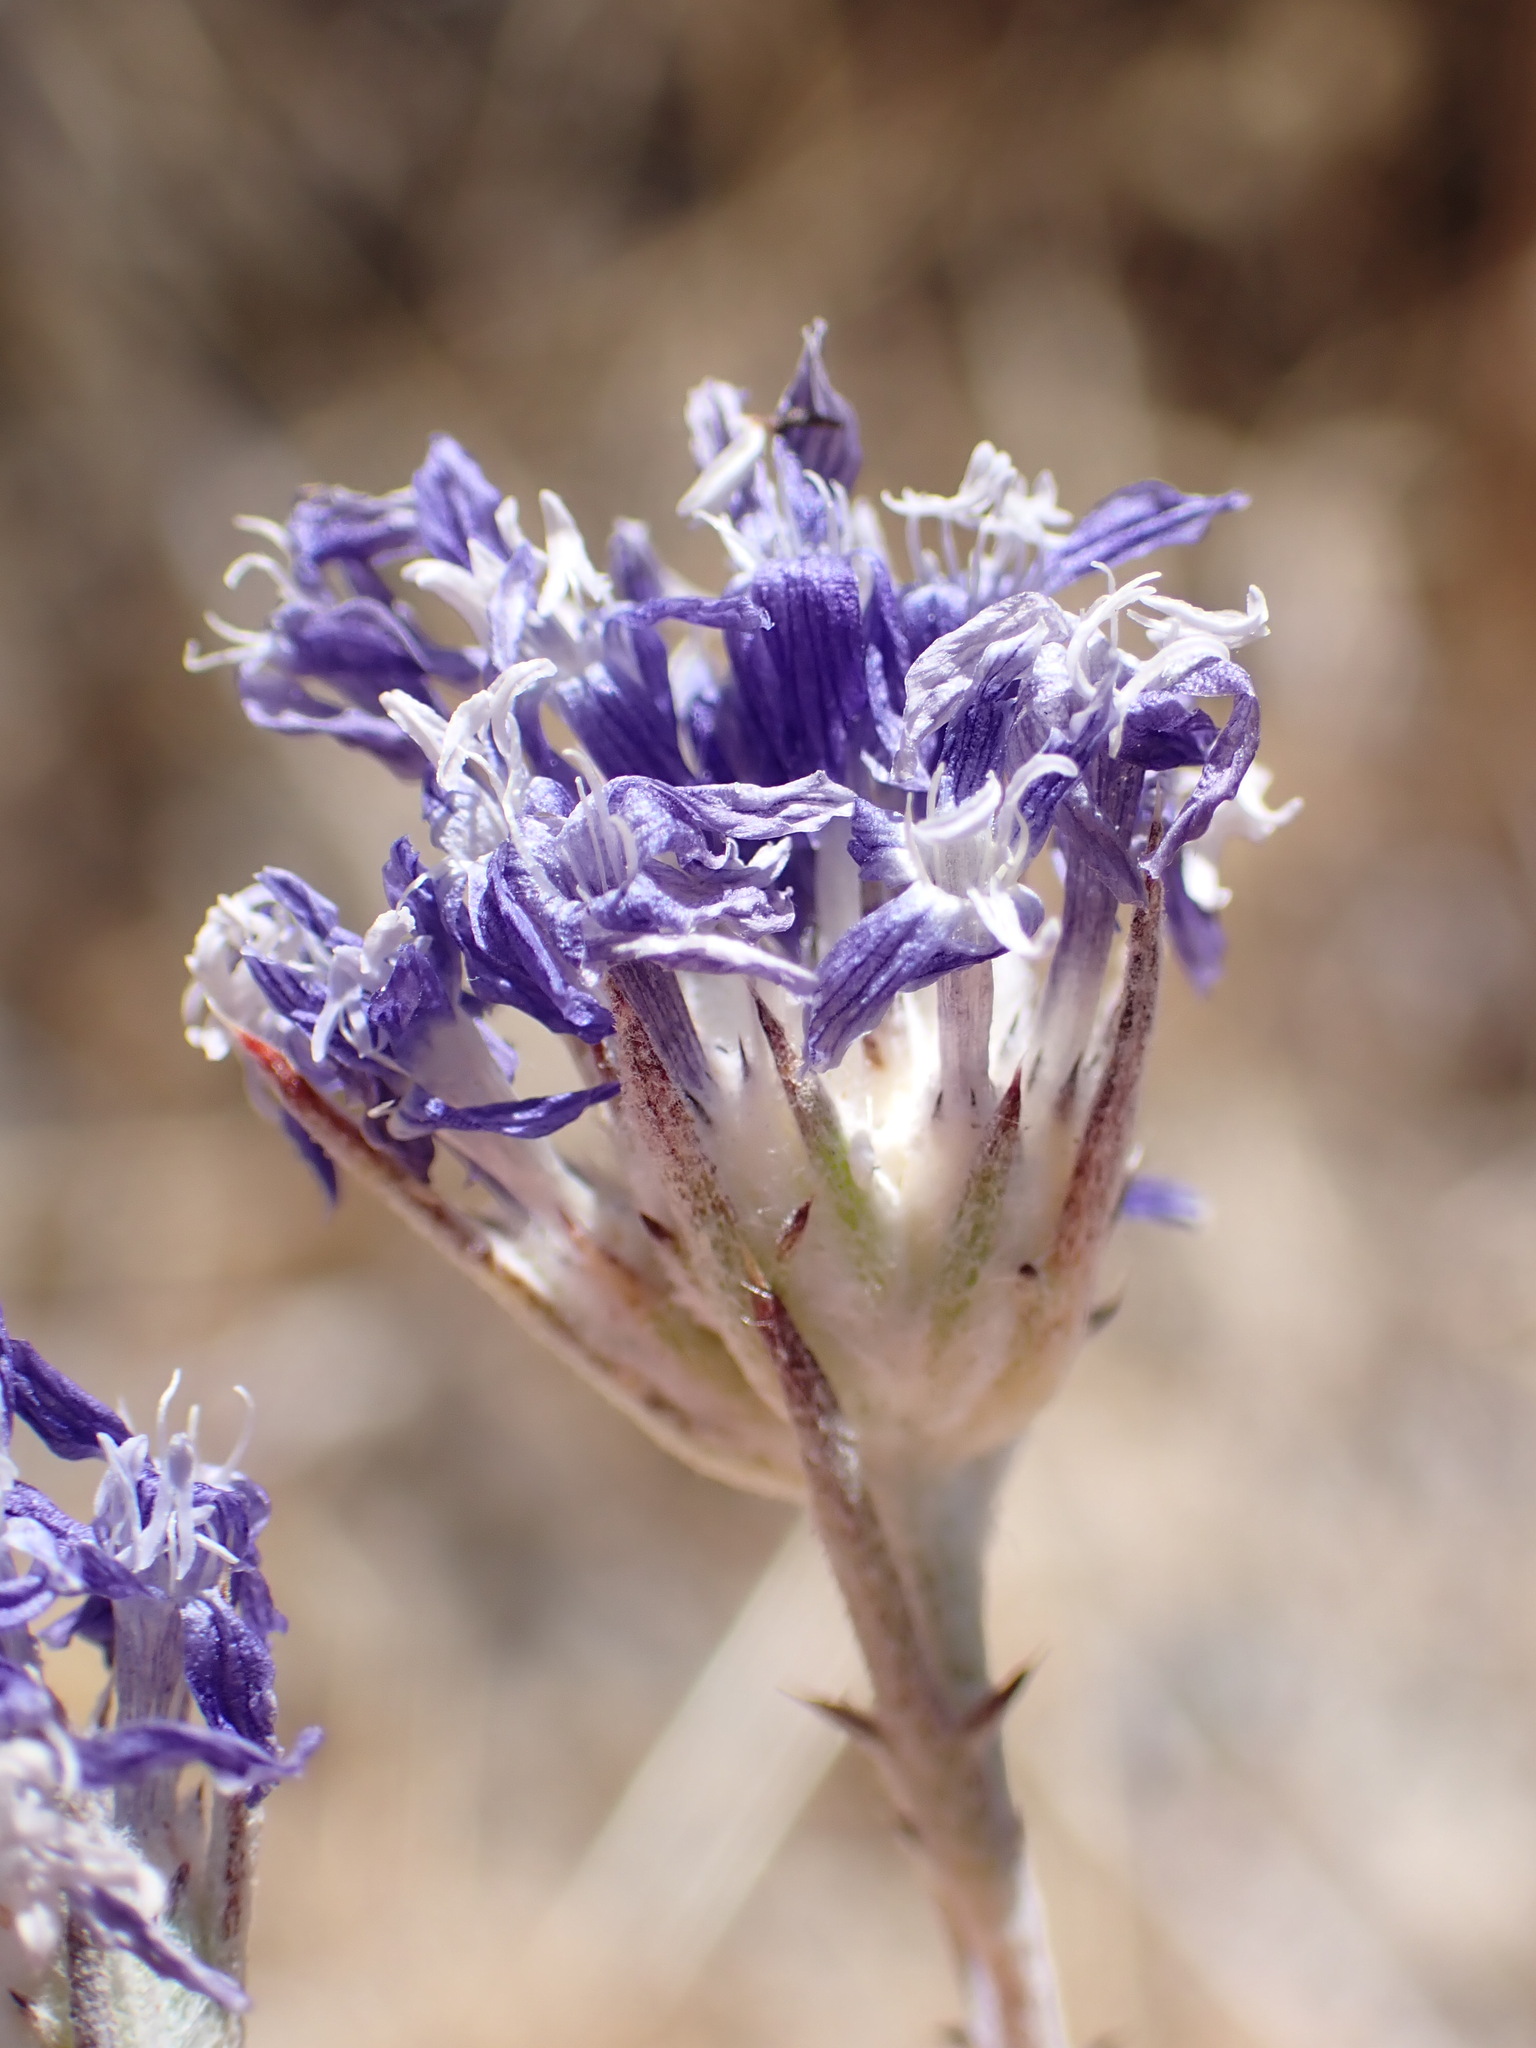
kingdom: Plantae
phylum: Tracheophyta
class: Magnoliopsida
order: Ericales
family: Polemoniaceae
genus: Eriastrum
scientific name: Eriastrum densifolium
